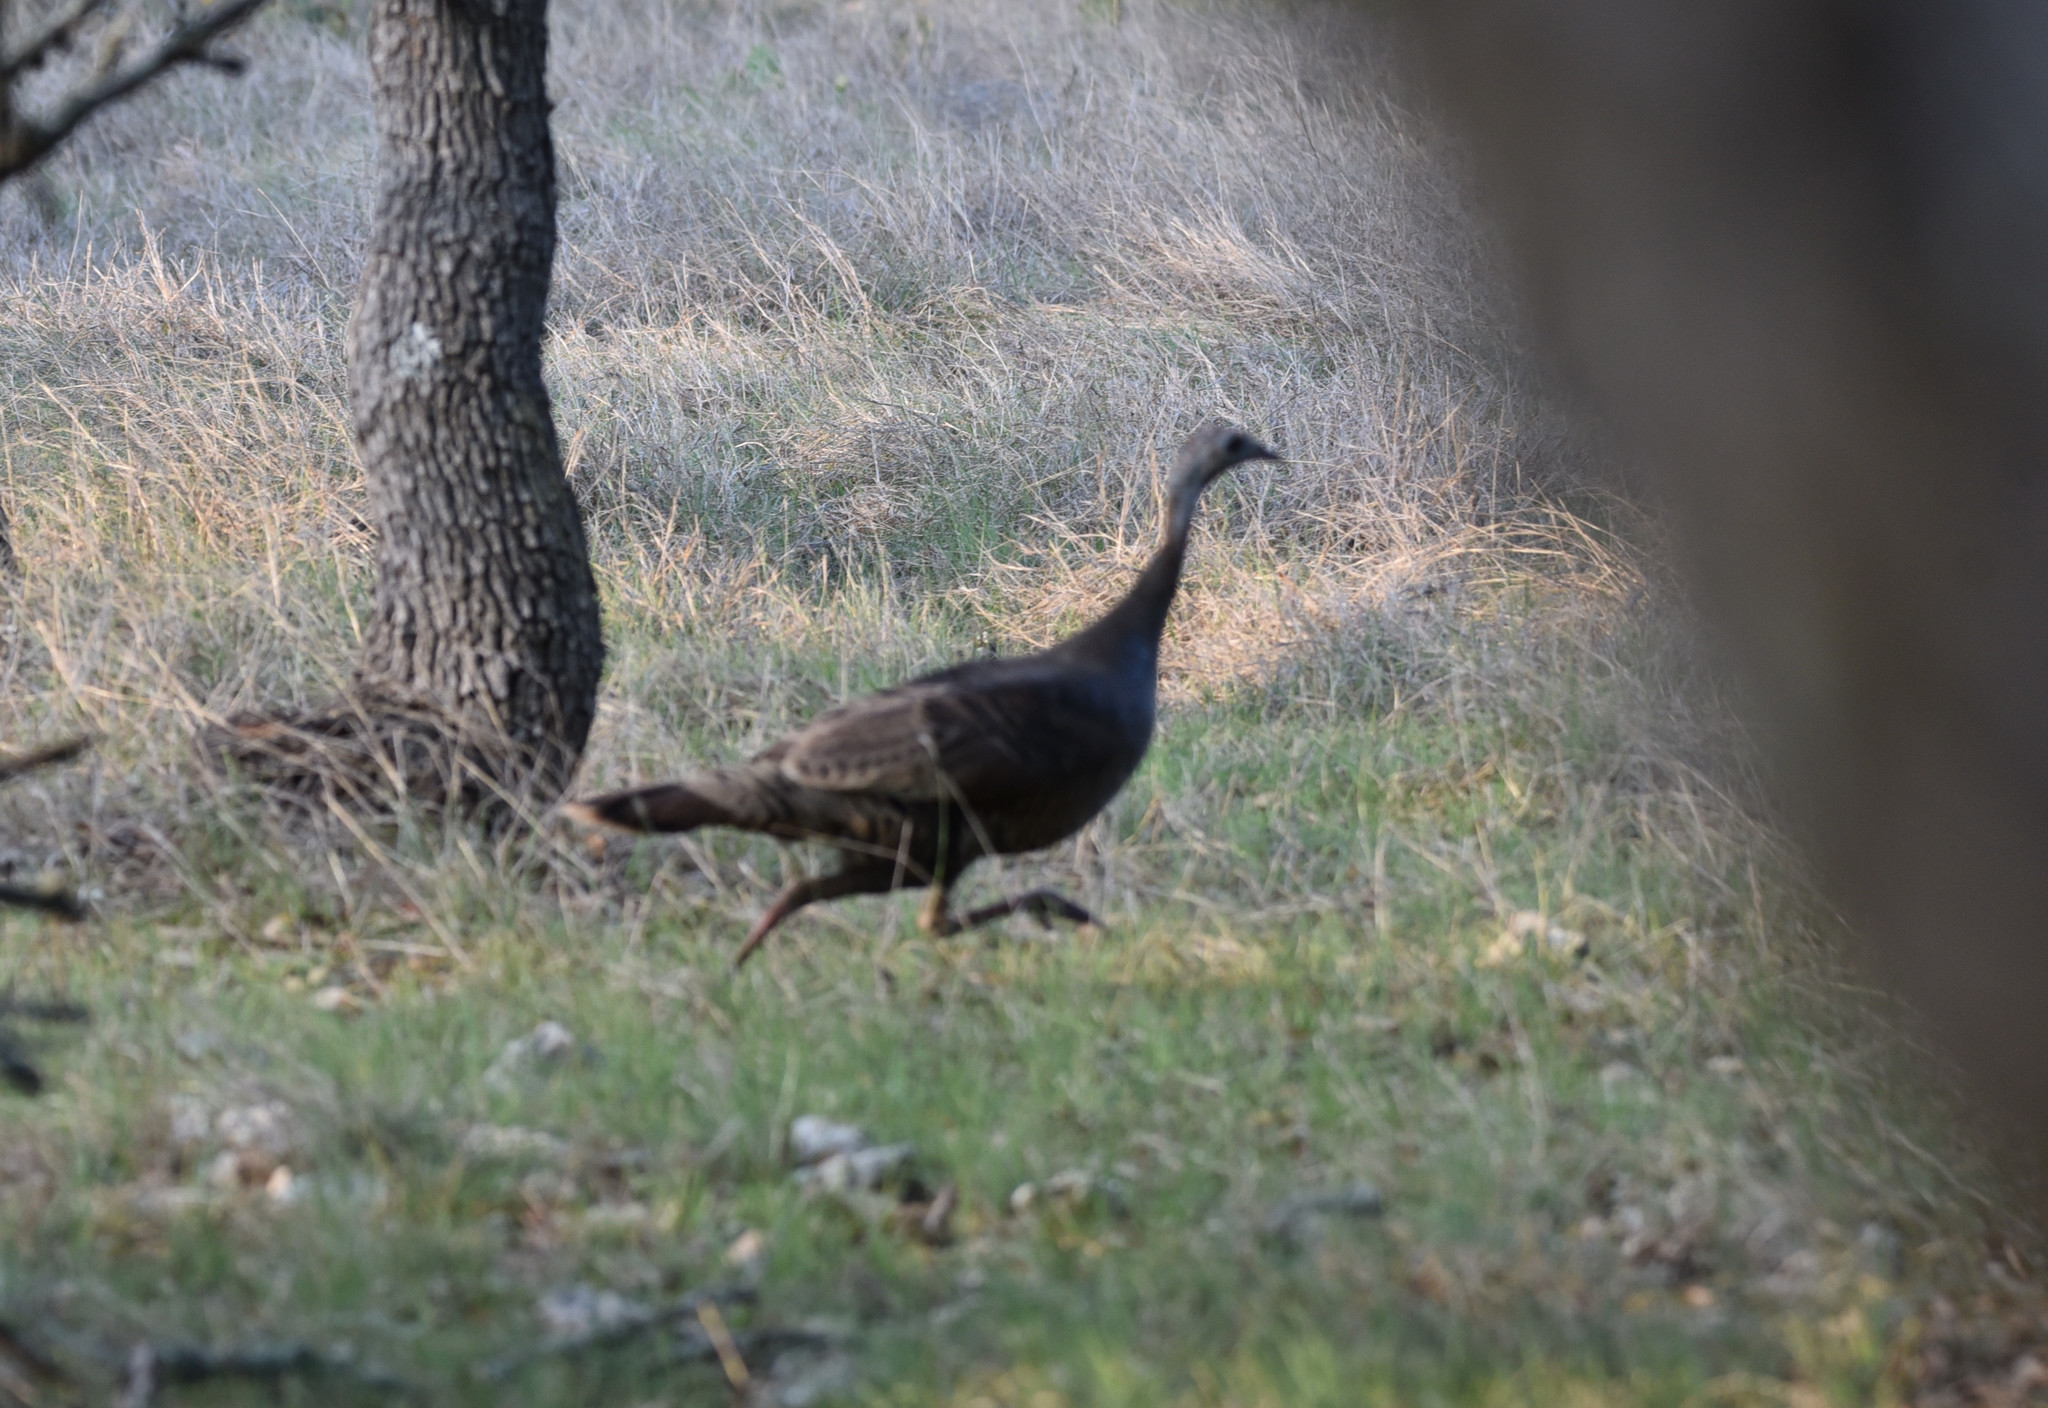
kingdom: Animalia
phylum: Chordata
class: Aves
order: Galliformes
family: Phasianidae
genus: Meleagris
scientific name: Meleagris gallopavo
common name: Wild turkey
